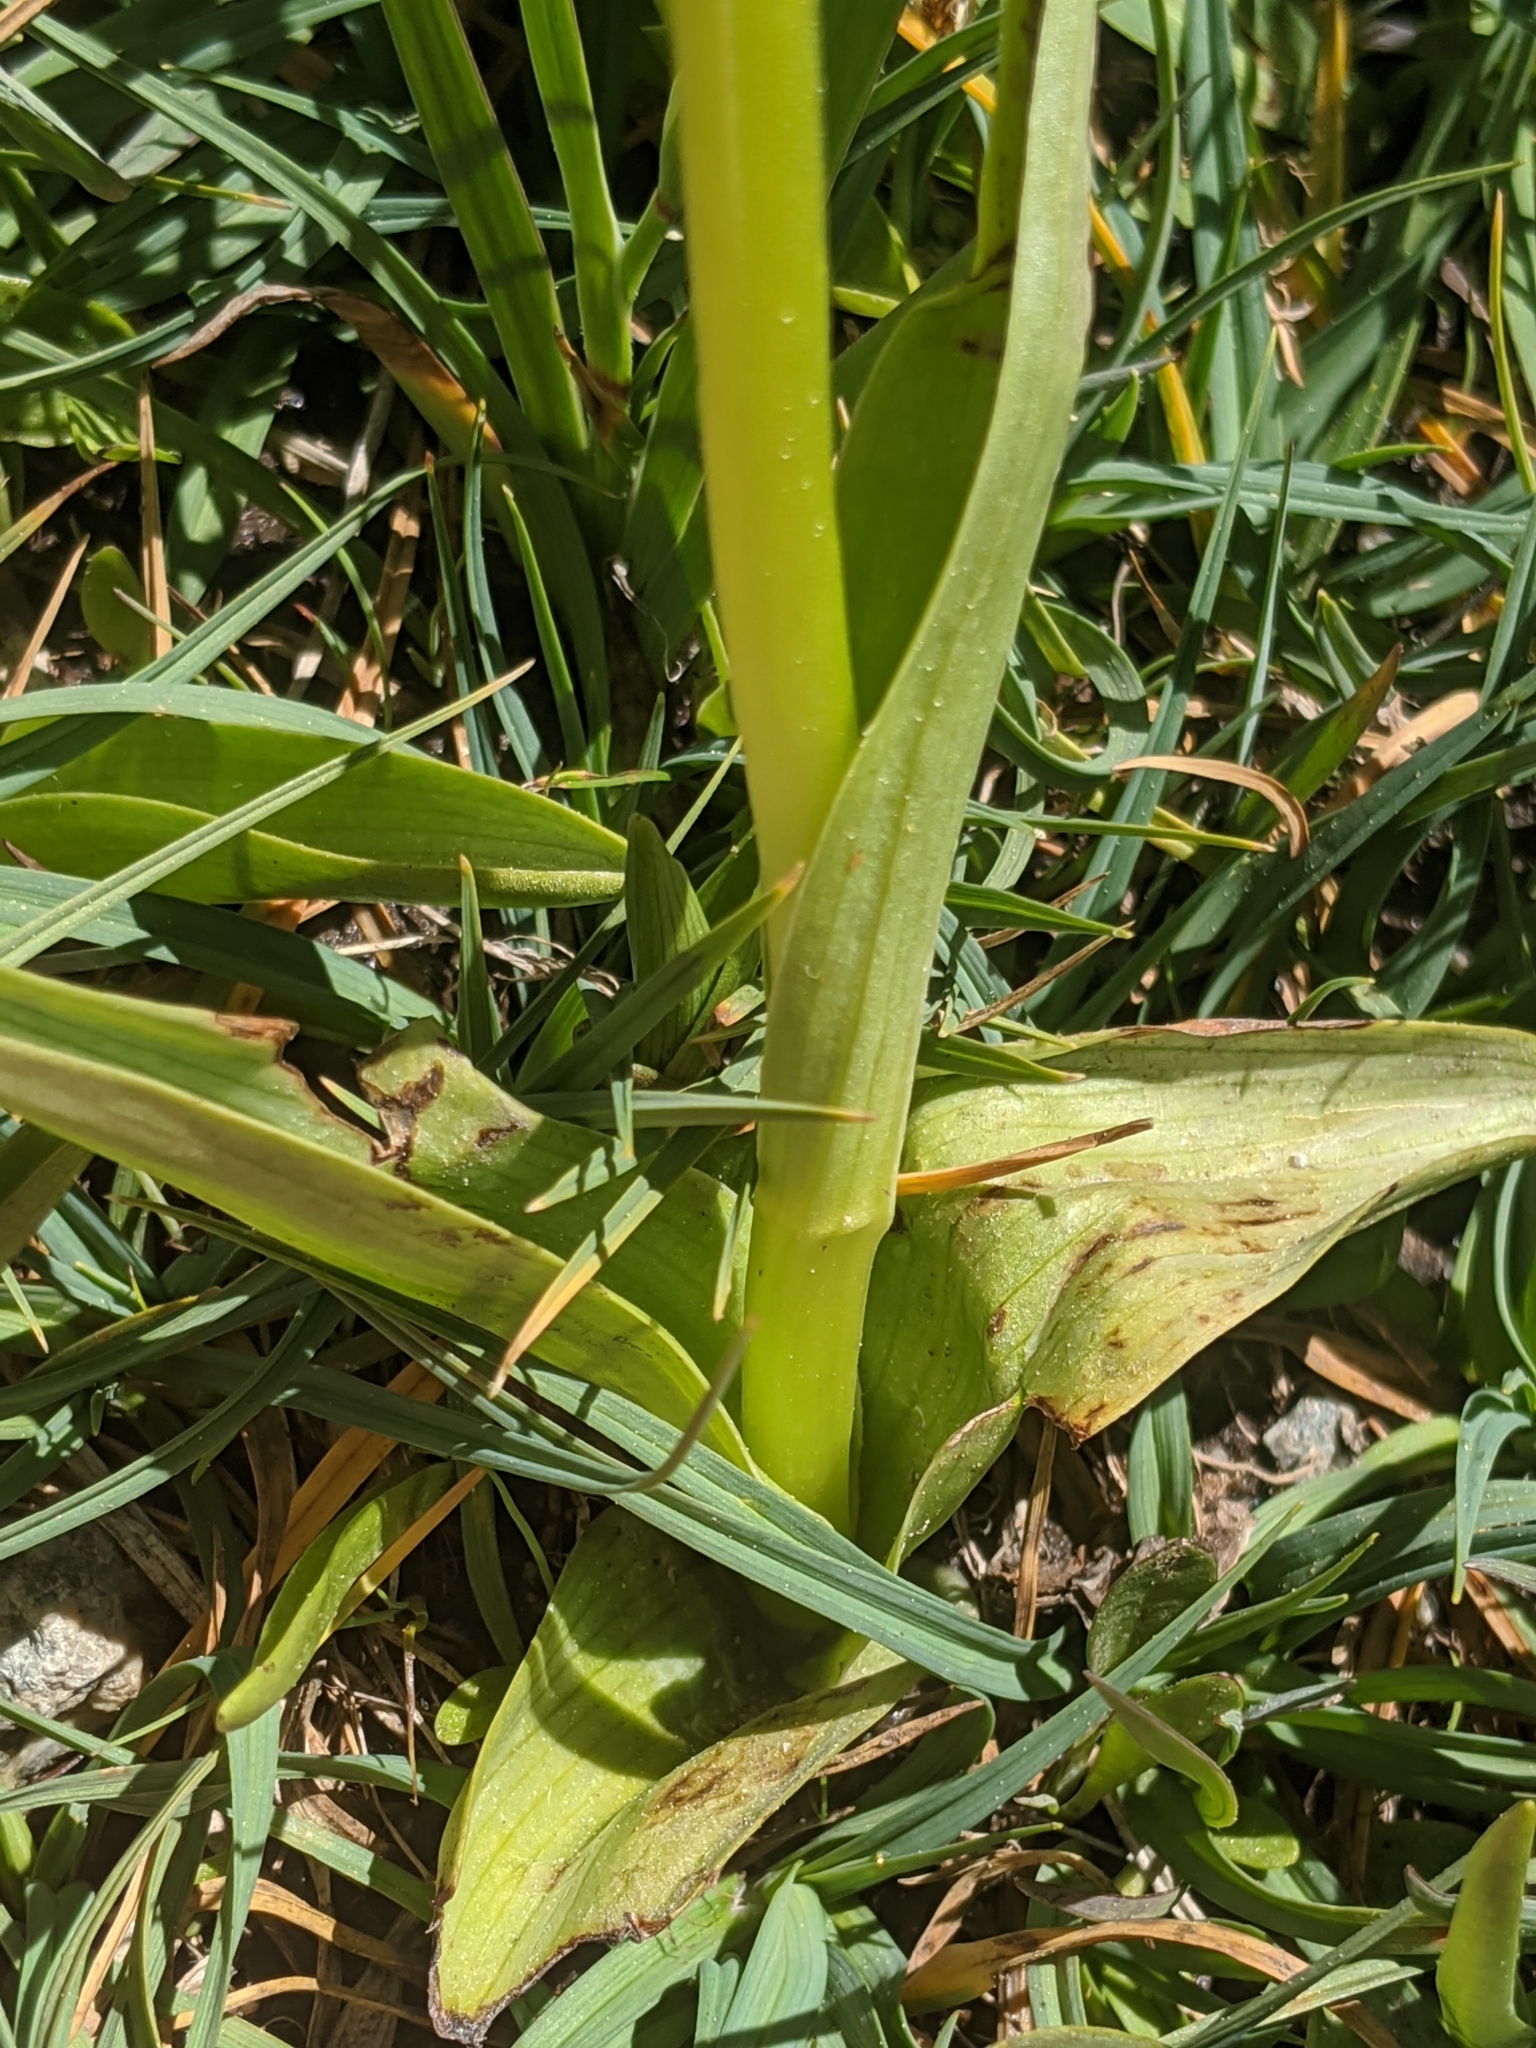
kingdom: Plantae
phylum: Tracheophyta
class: Liliopsida
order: Asparagales
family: Orchidaceae
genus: Platanthera
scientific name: Platanthera sparsiflora
